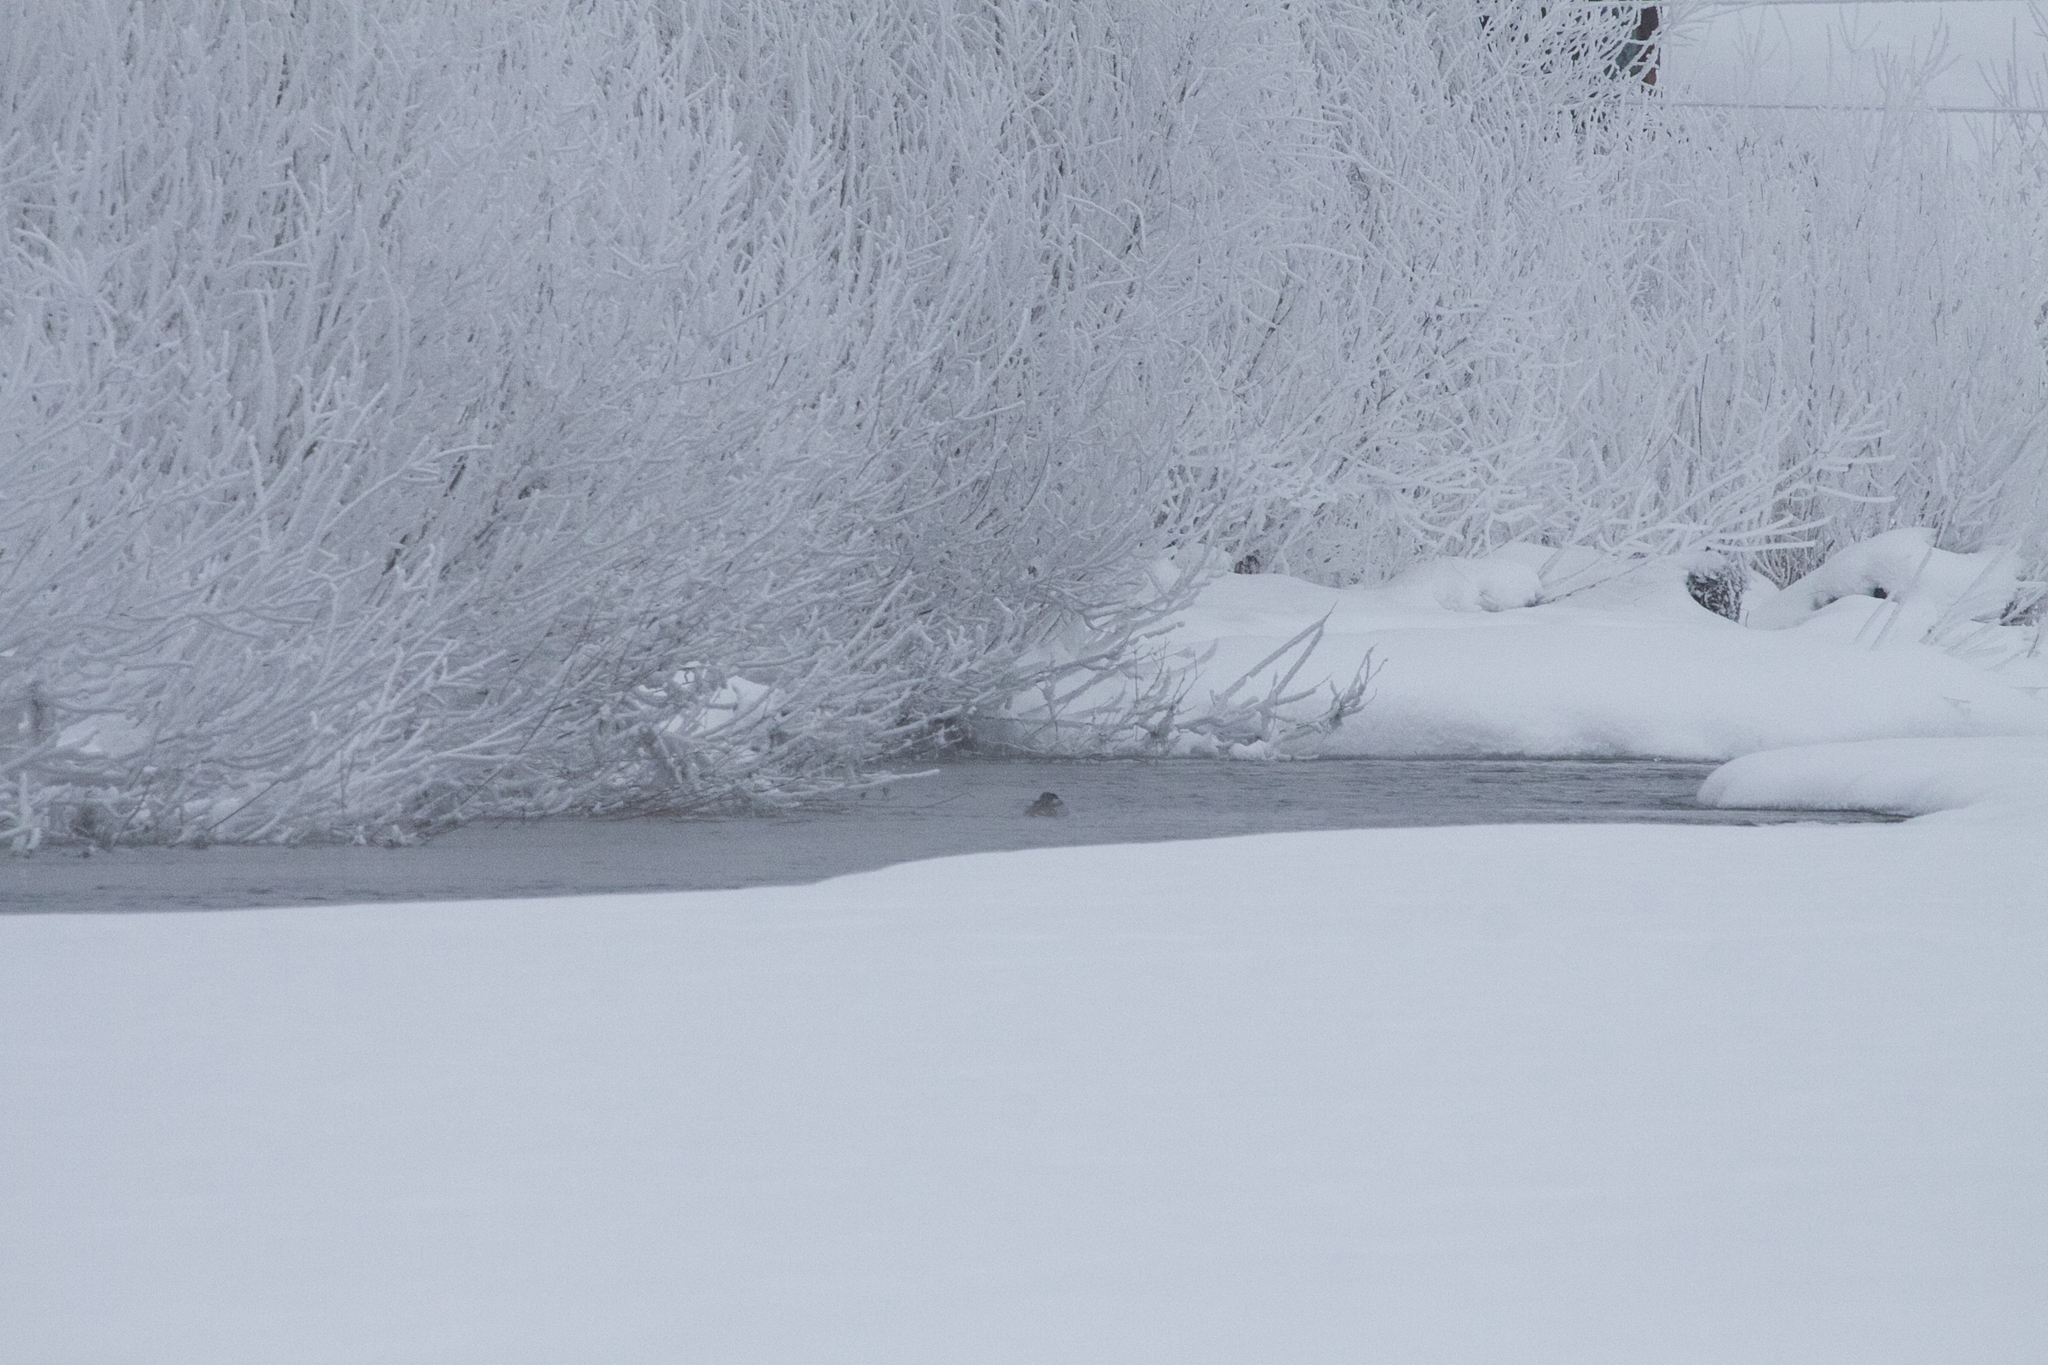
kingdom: Animalia
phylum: Chordata
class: Aves
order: Anseriformes
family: Anatidae
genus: Anas
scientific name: Anas platyrhynchos
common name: Mallard
